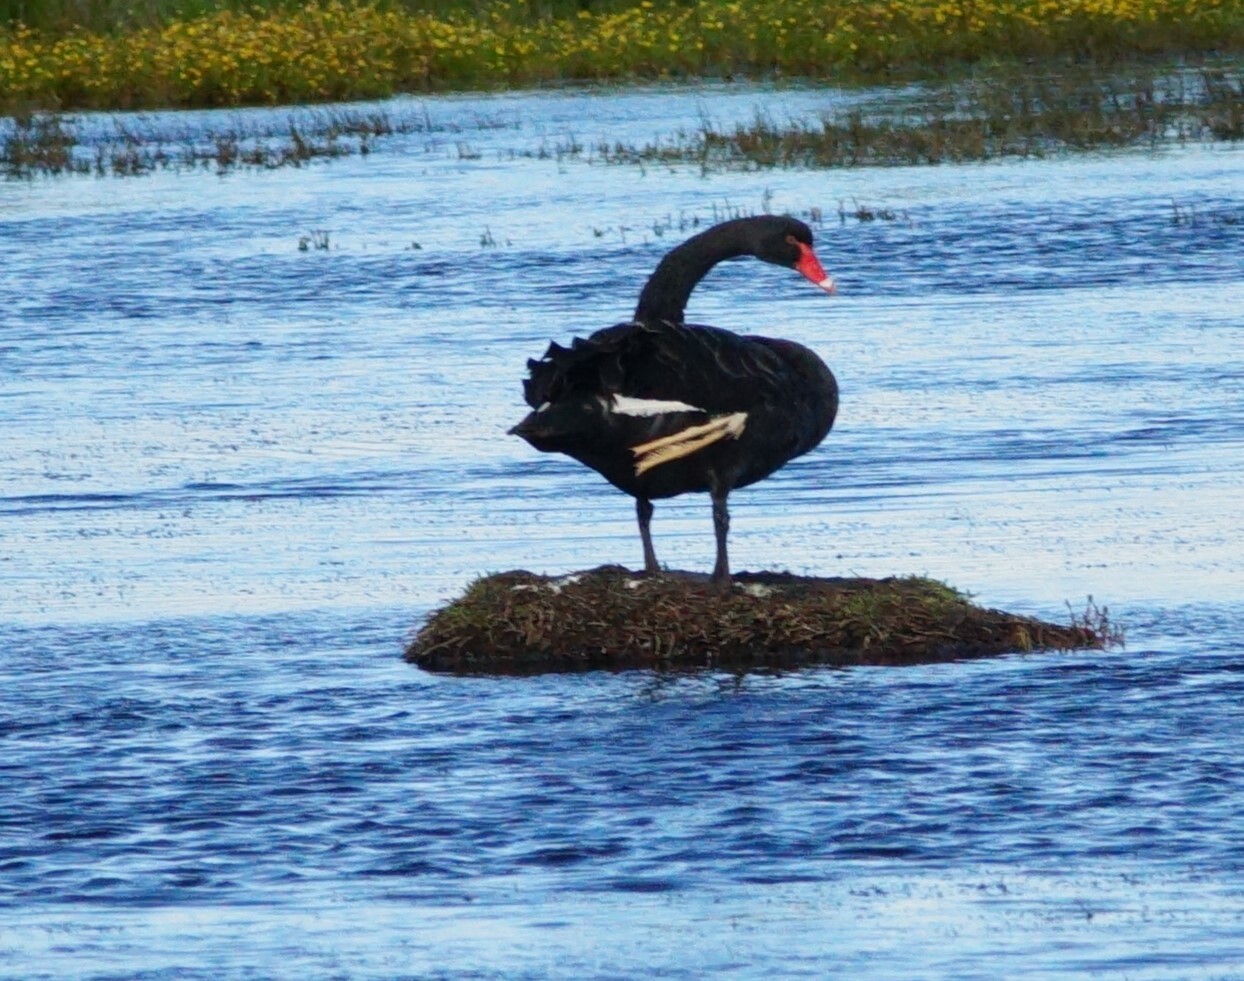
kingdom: Animalia
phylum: Chordata
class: Aves
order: Anseriformes
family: Anatidae
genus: Cygnus
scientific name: Cygnus atratus
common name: Black swan
